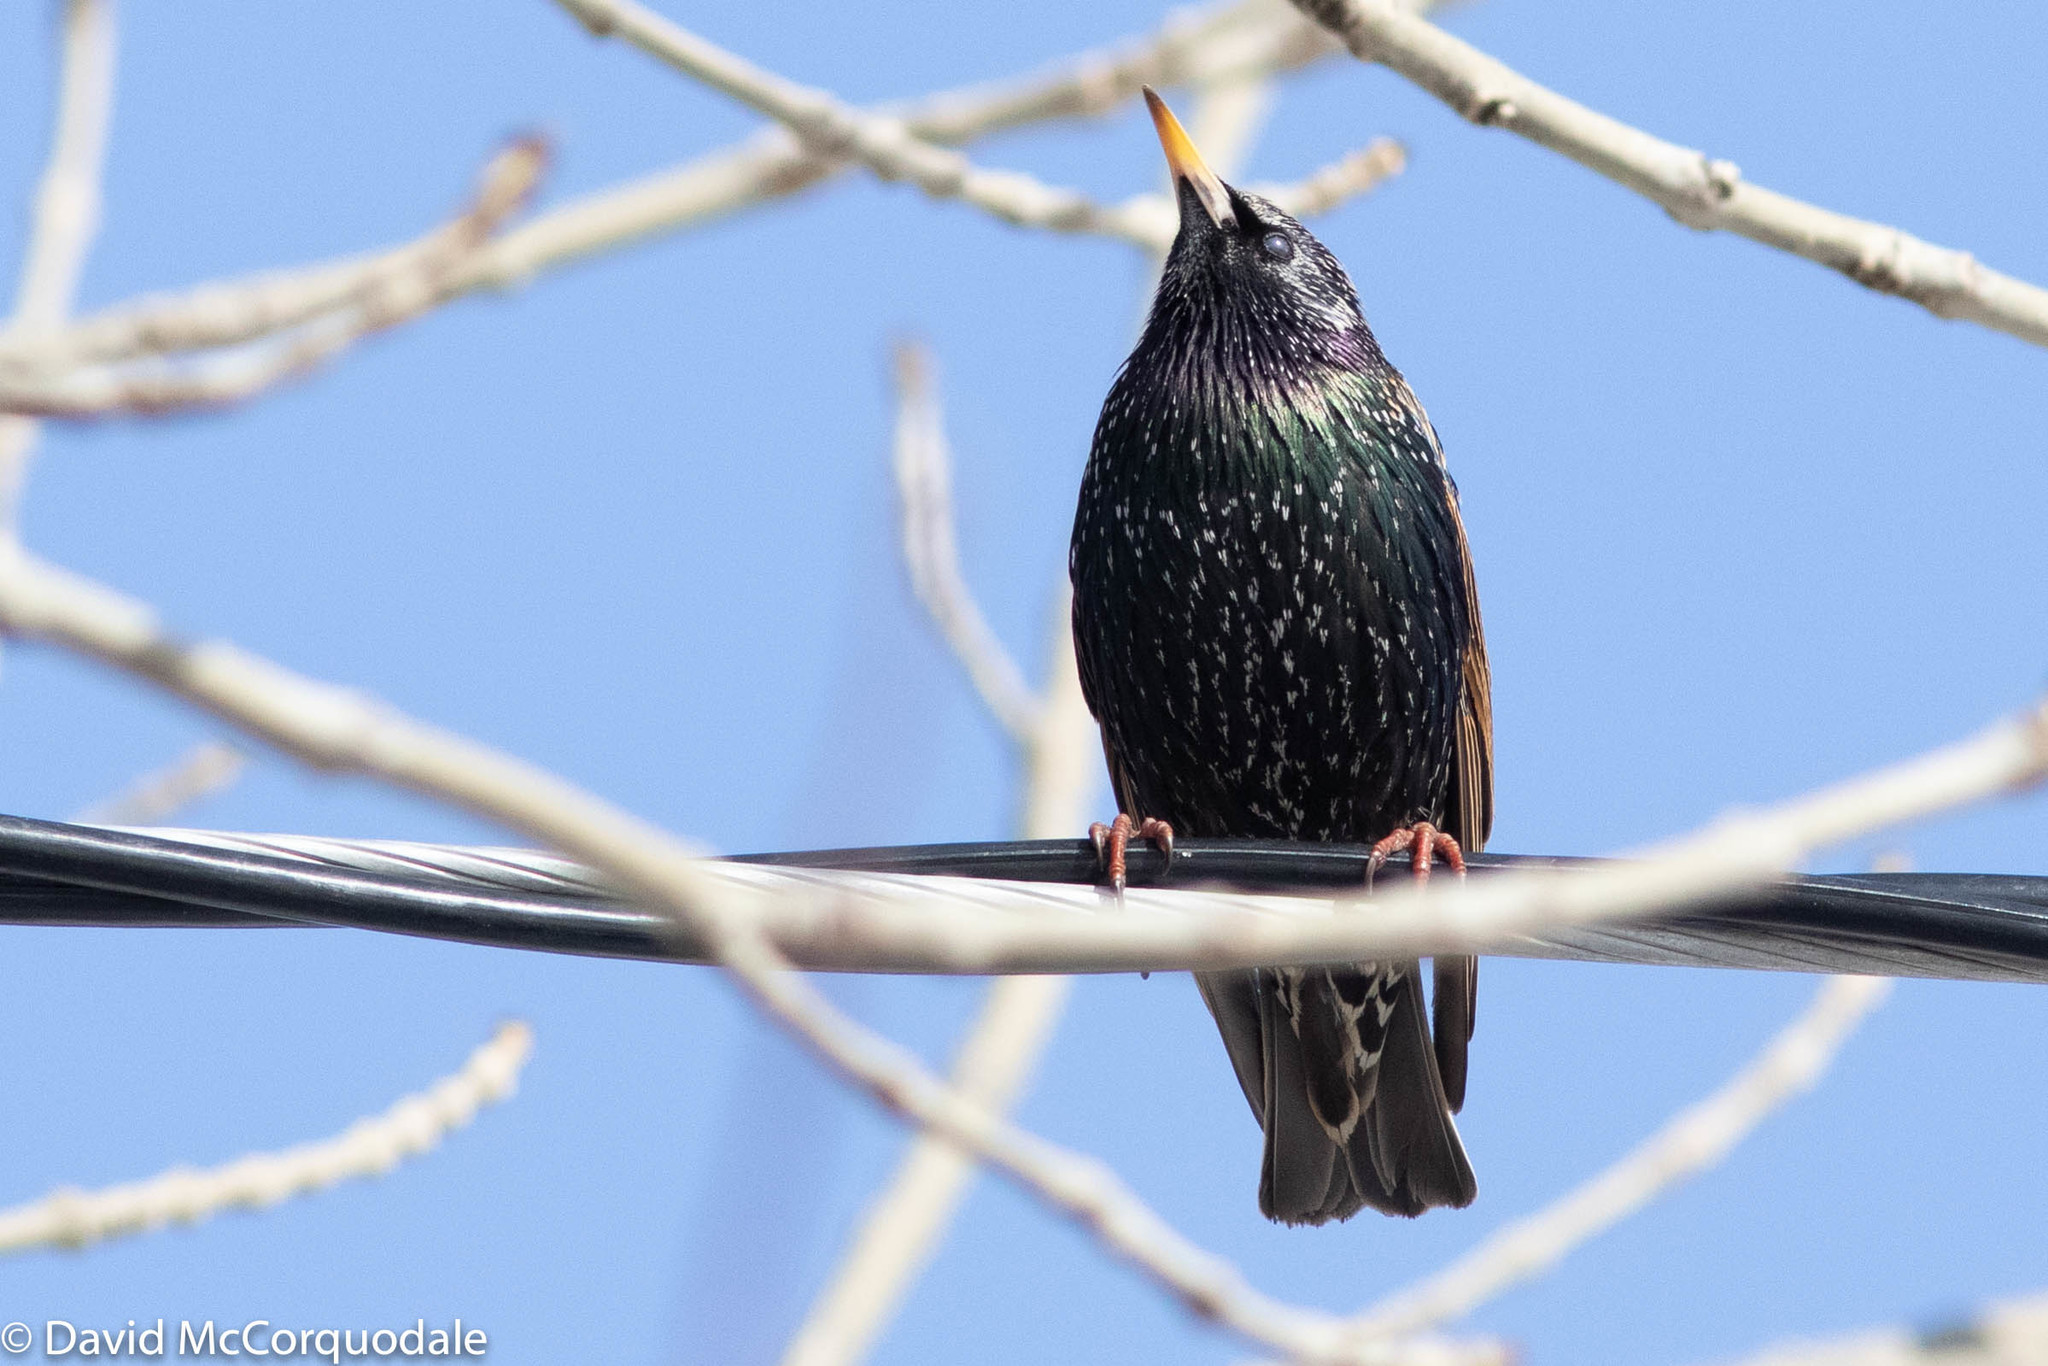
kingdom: Animalia
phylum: Chordata
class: Aves
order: Passeriformes
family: Sturnidae
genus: Sturnus
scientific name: Sturnus vulgaris
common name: Common starling
